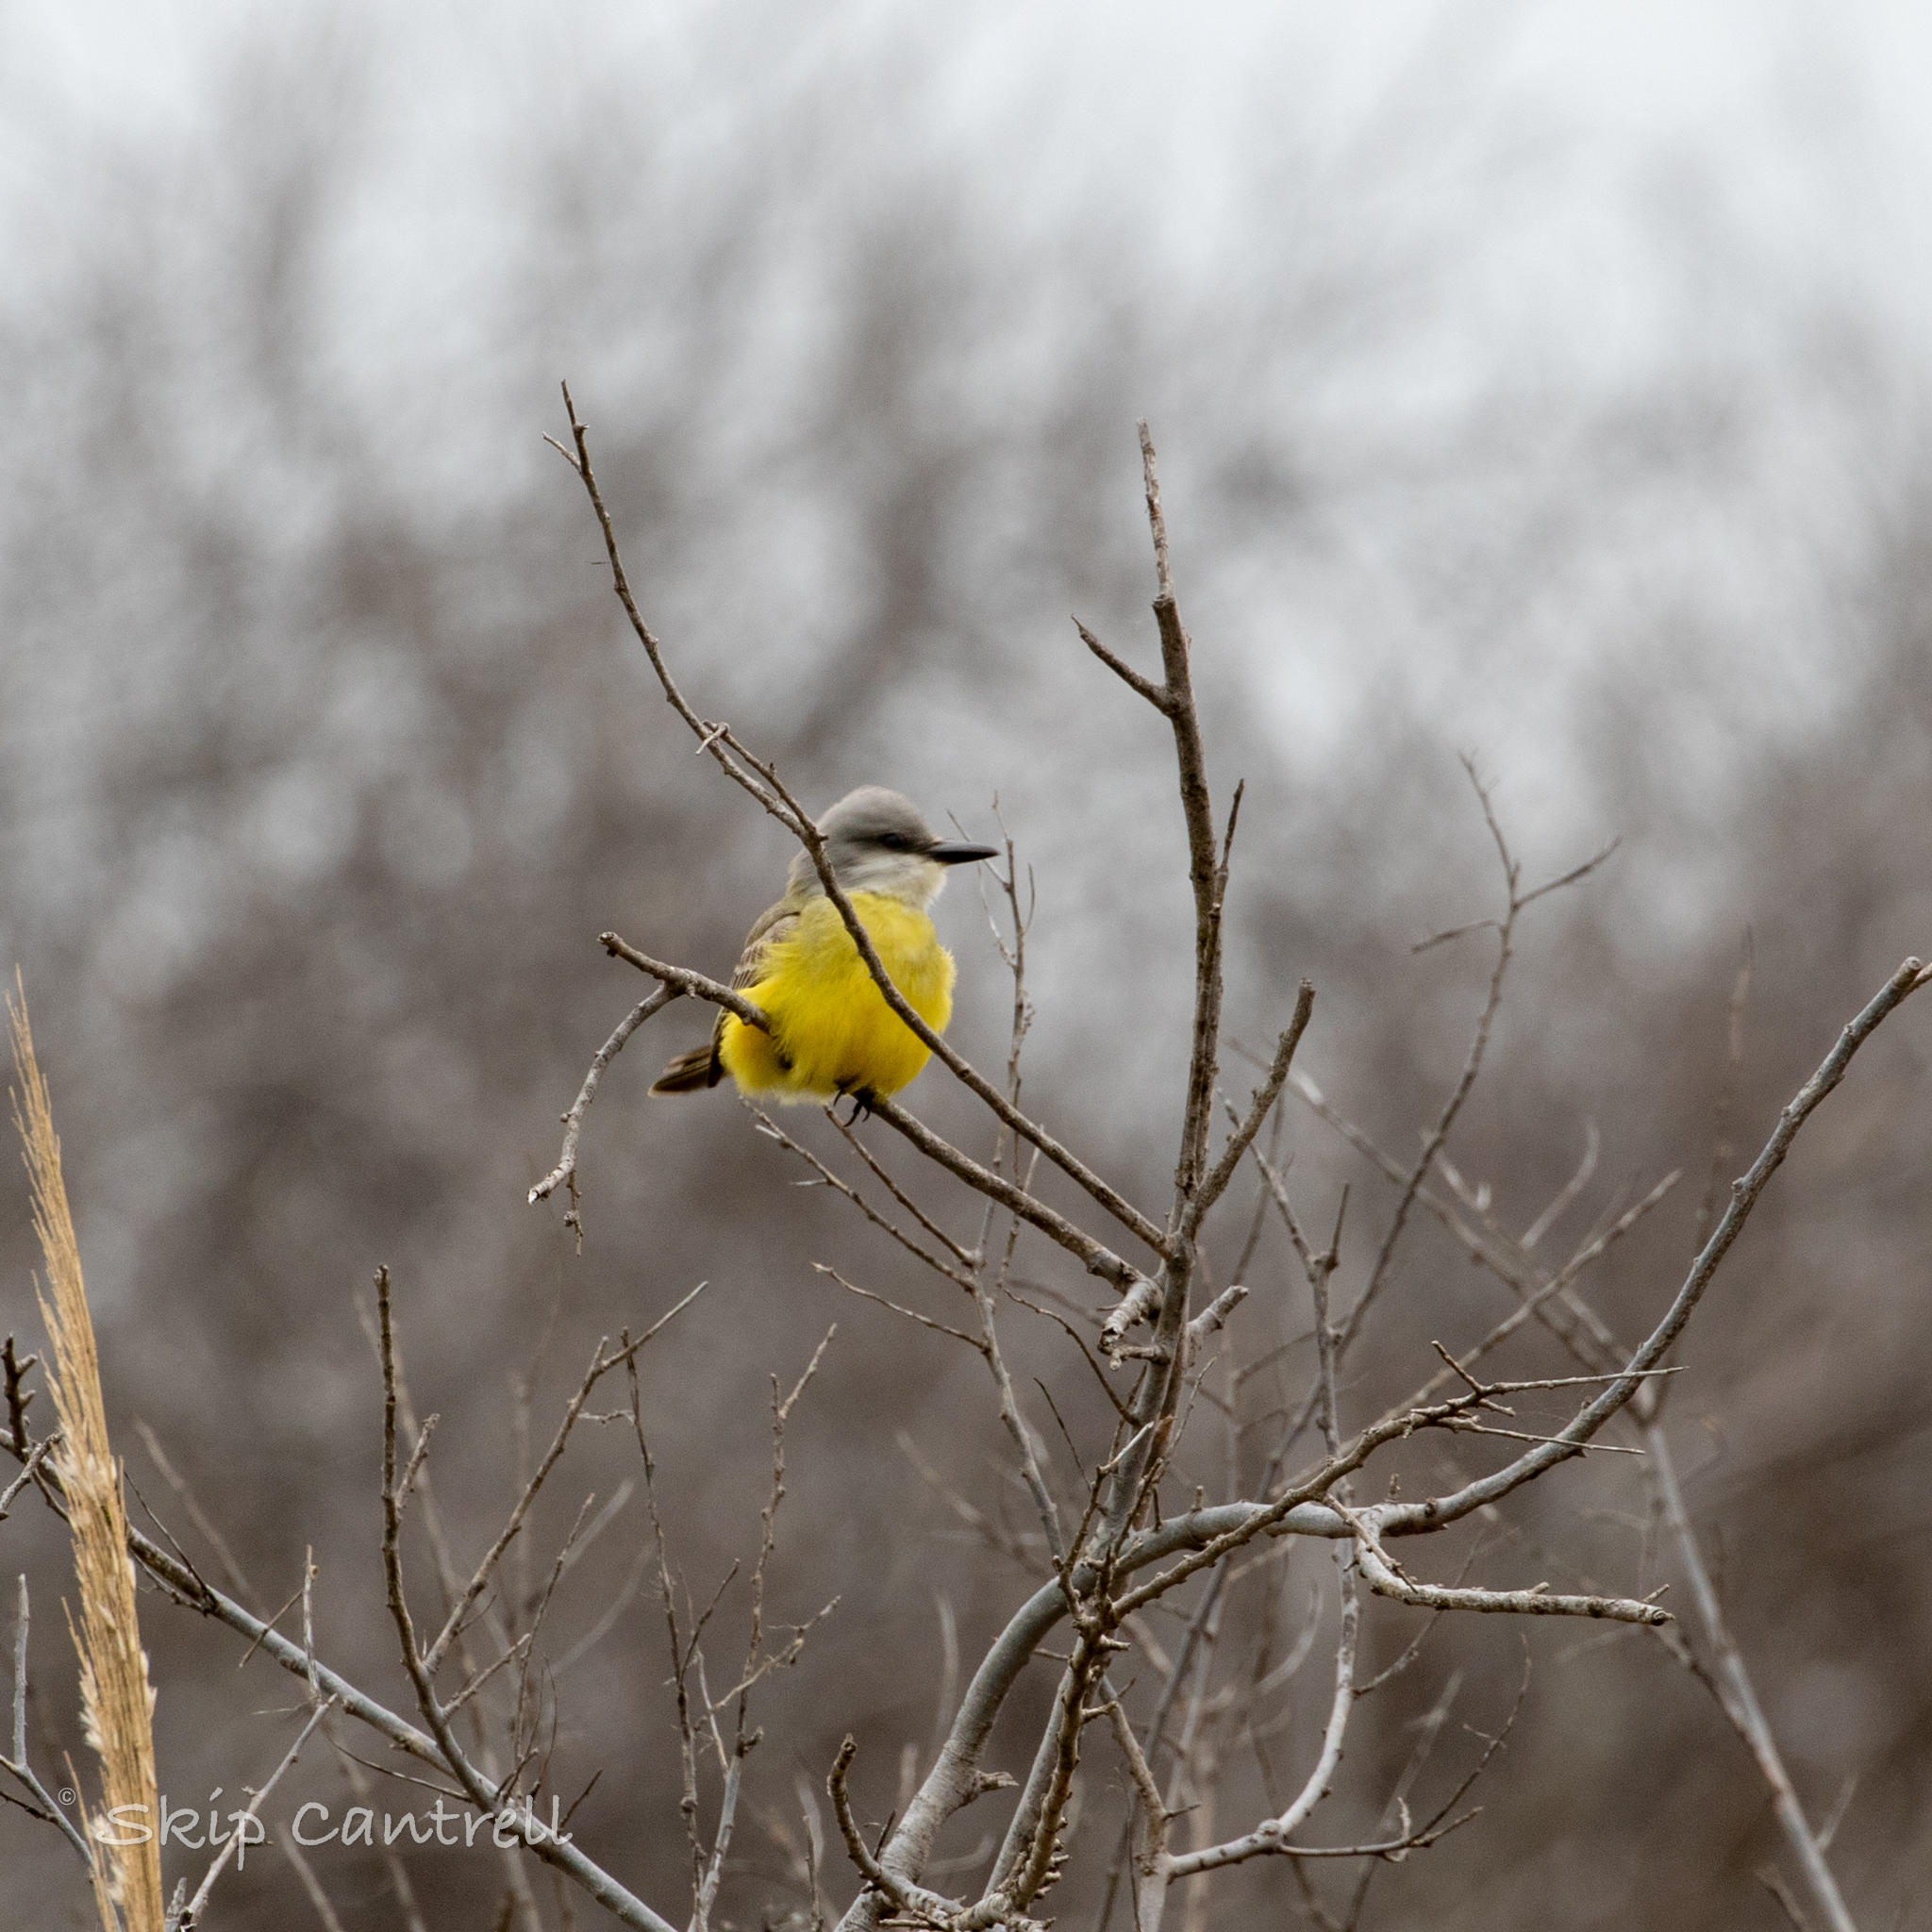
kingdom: Animalia
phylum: Chordata
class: Aves
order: Passeriformes
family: Tyrannidae
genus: Tyrannus
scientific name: Tyrannus melancholicus
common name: Tropical kingbird
